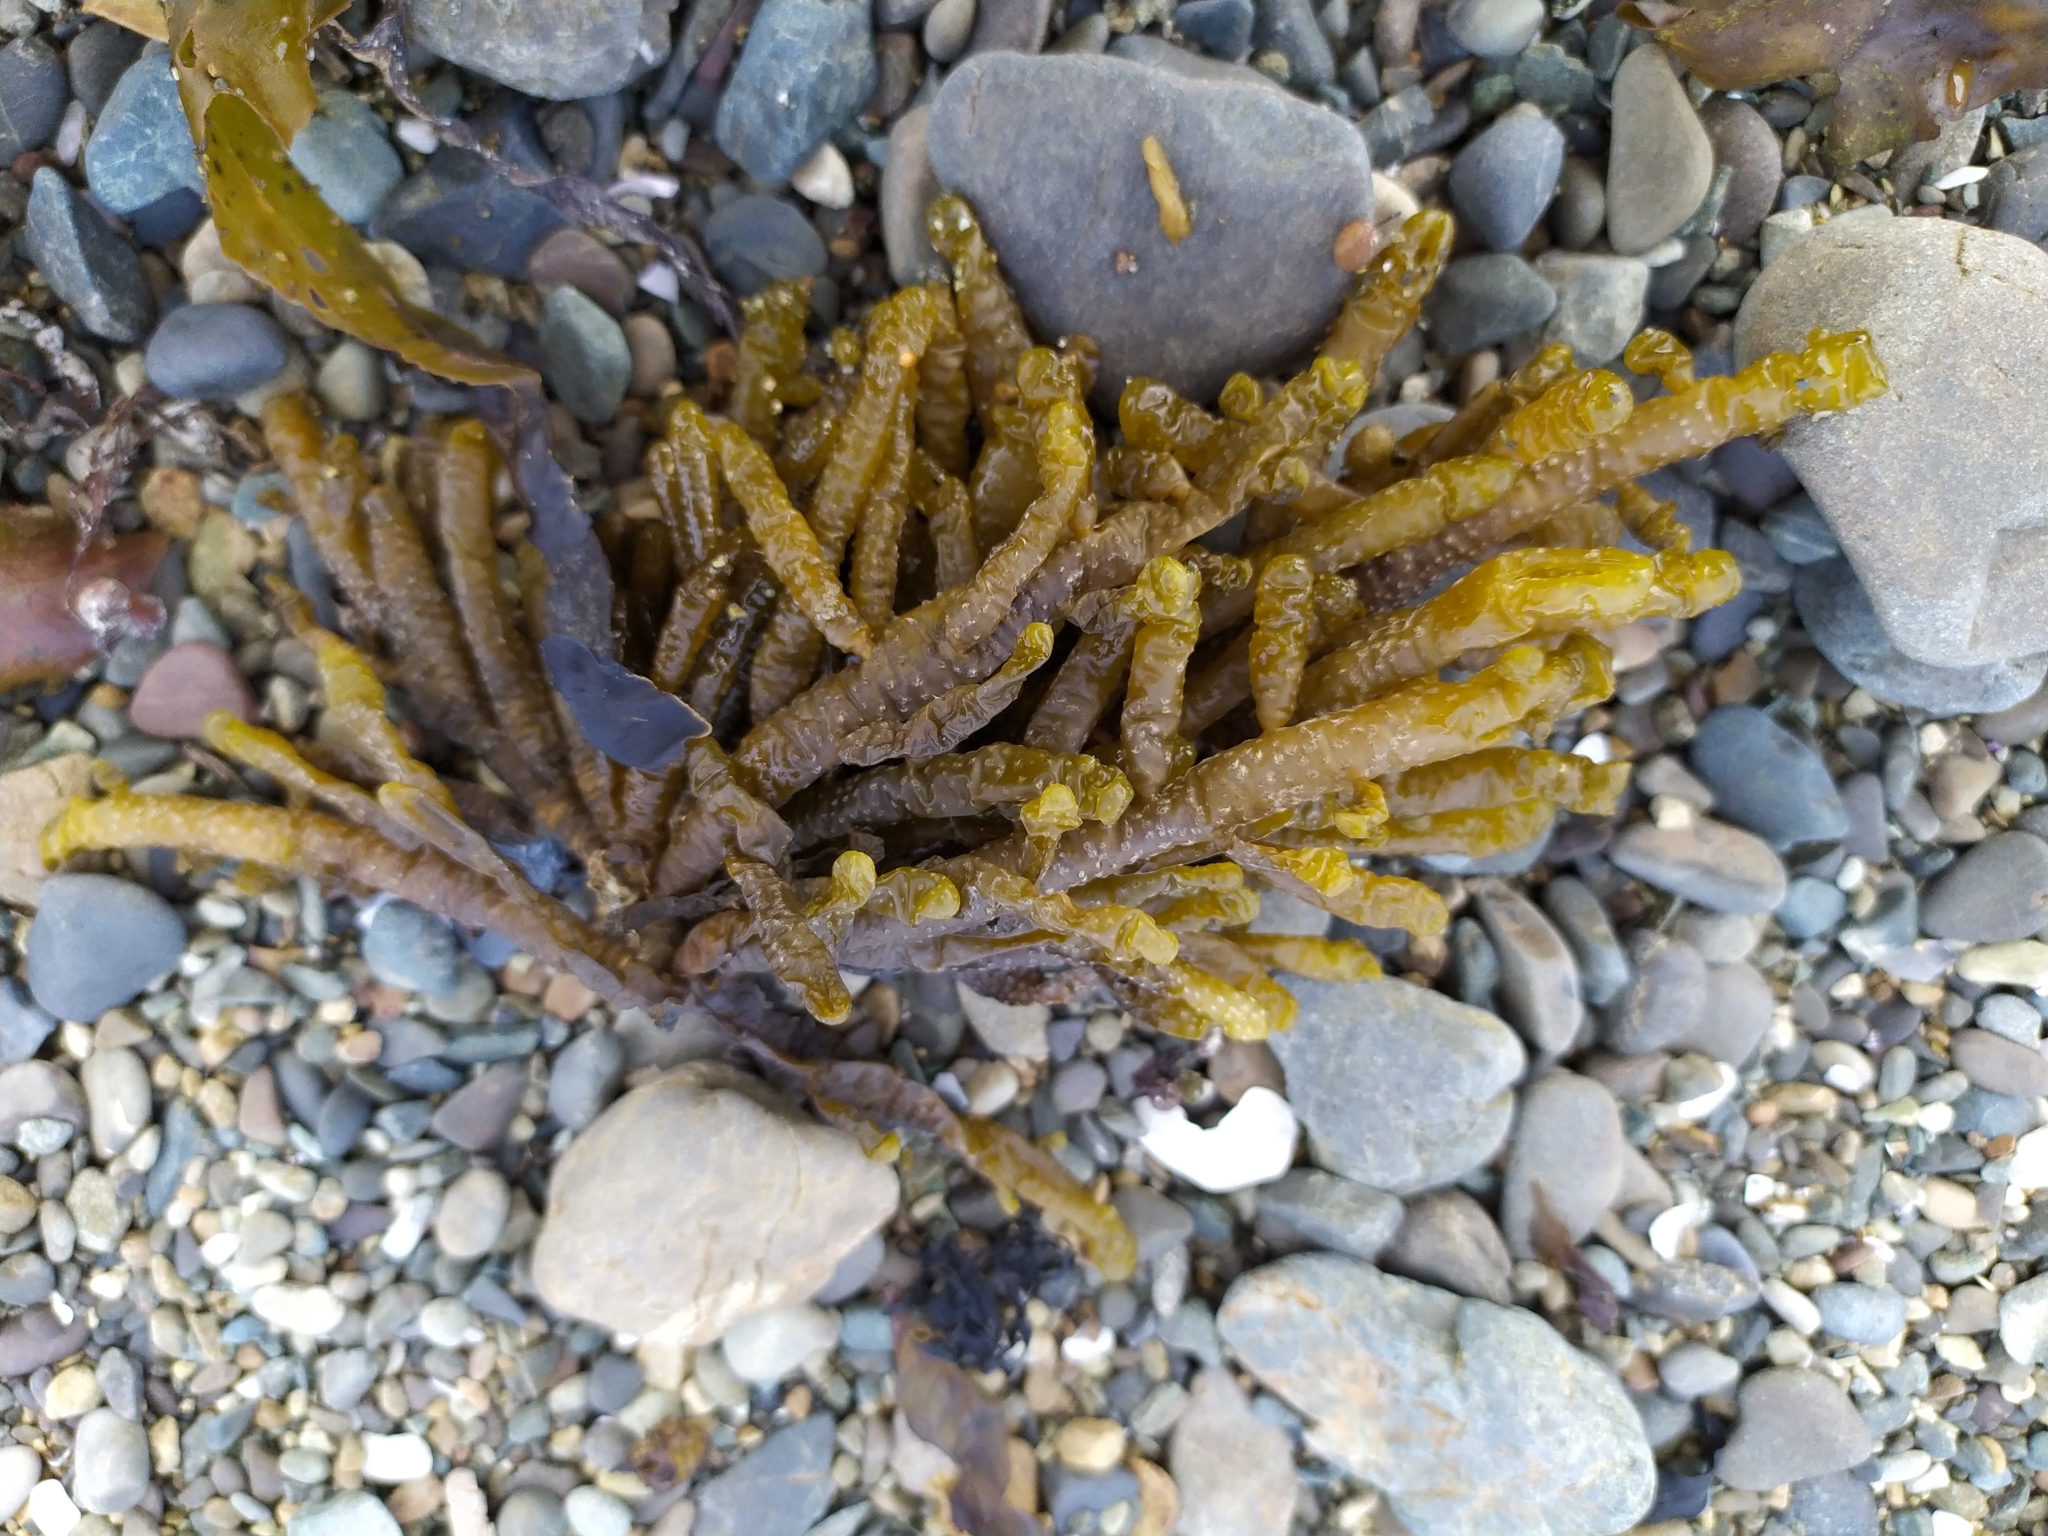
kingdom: Chromista
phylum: Ochrophyta
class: Phaeophyceae
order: Scytothamnales
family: Splachnidiaceae
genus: Splachnidium
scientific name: Splachnidium rugosum
